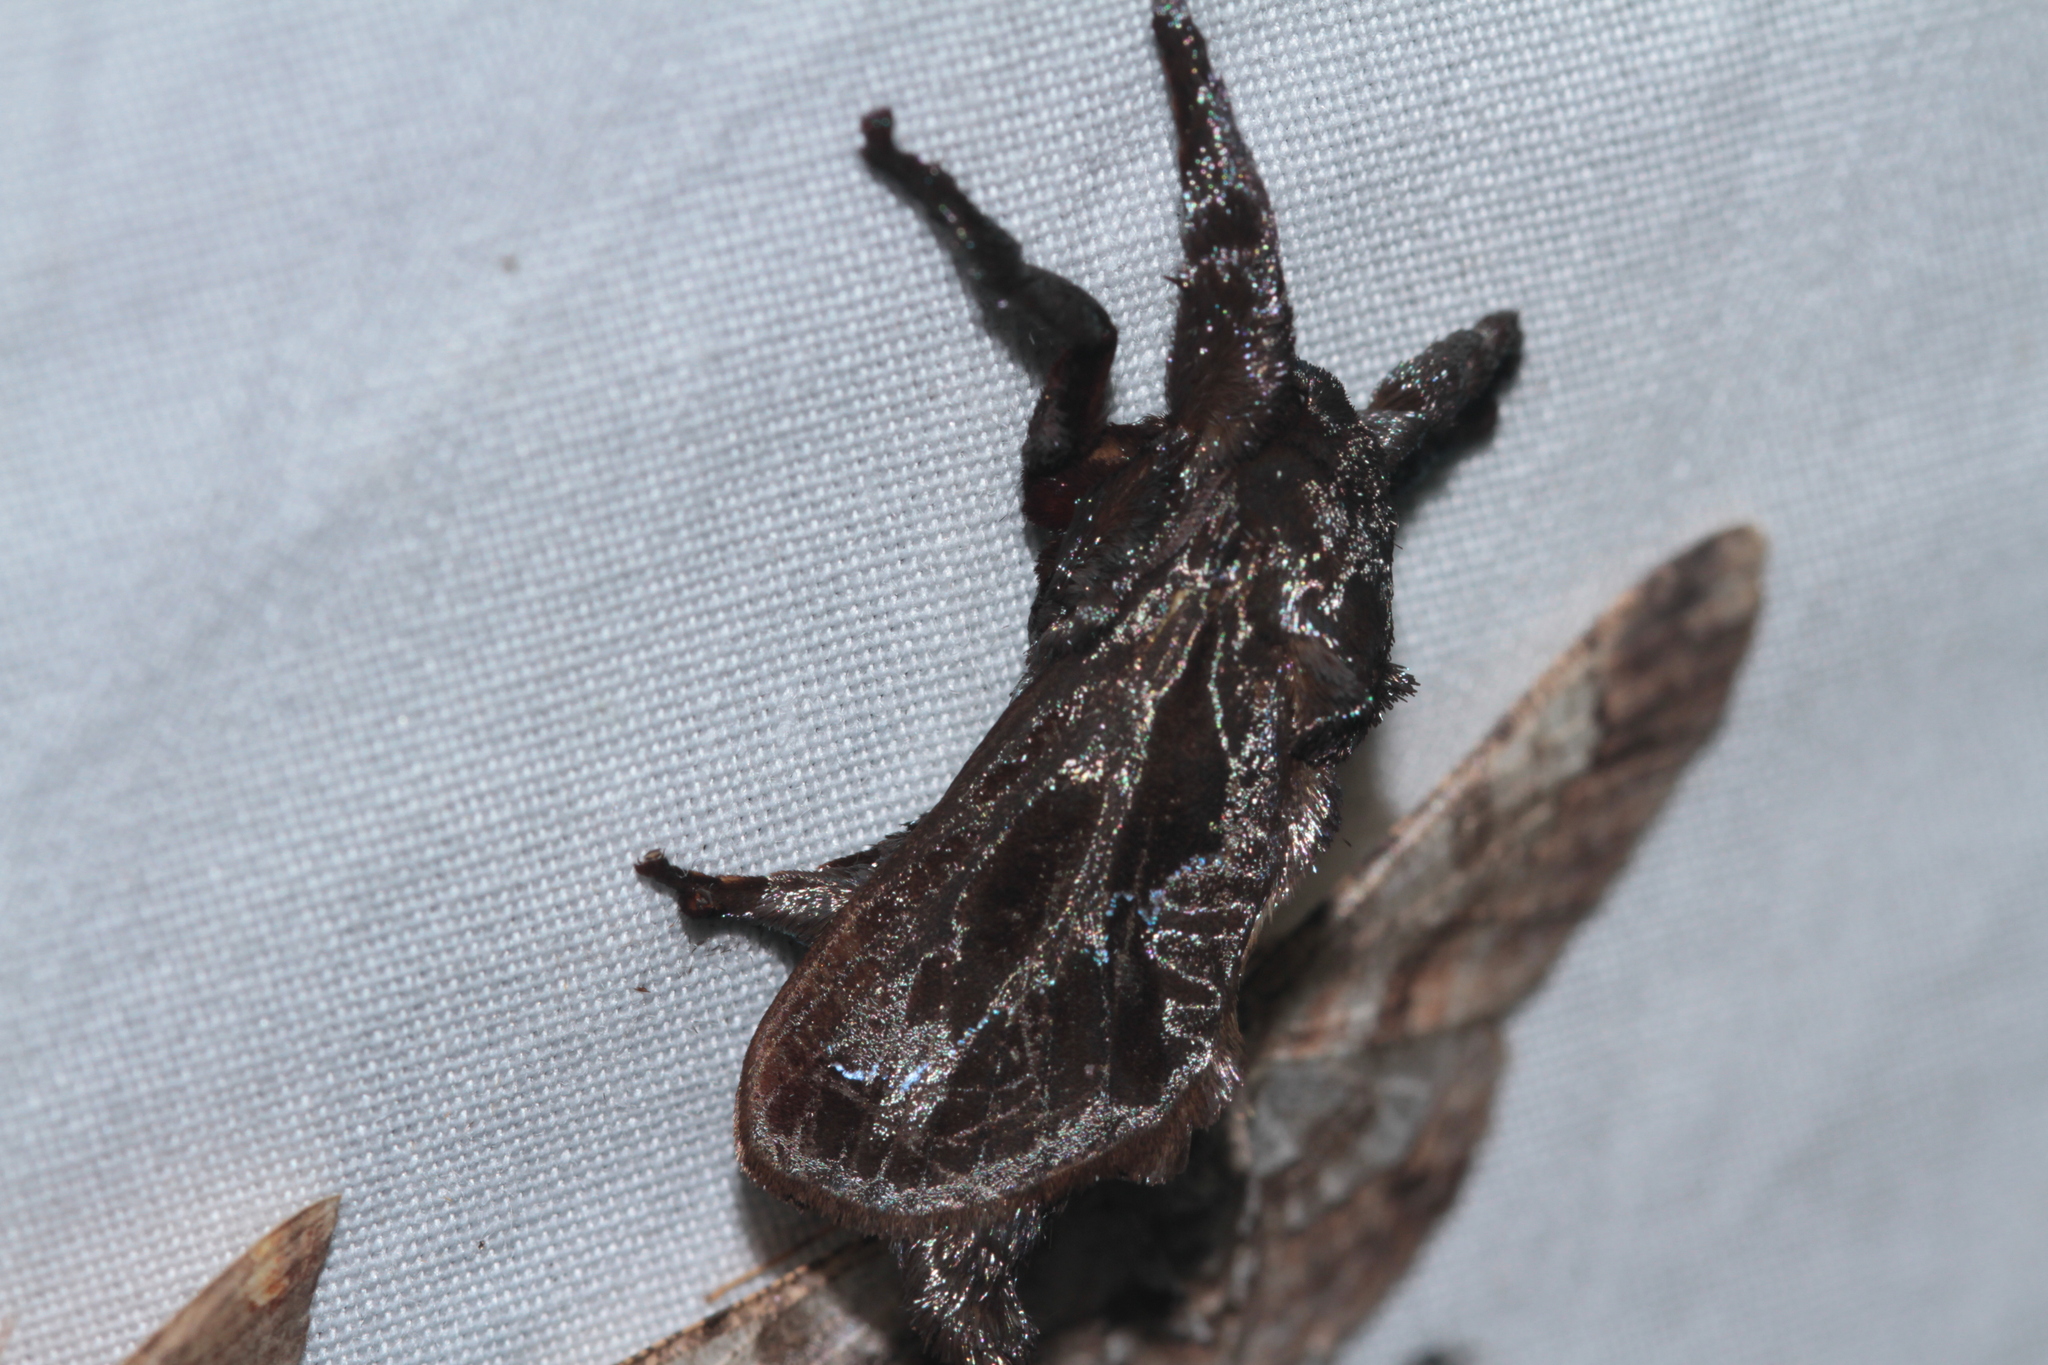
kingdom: Animalia
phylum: Arthropoda
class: Insecta
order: Lepidoptera
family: Limacodidae
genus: Sibine
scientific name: Sibine nesea
